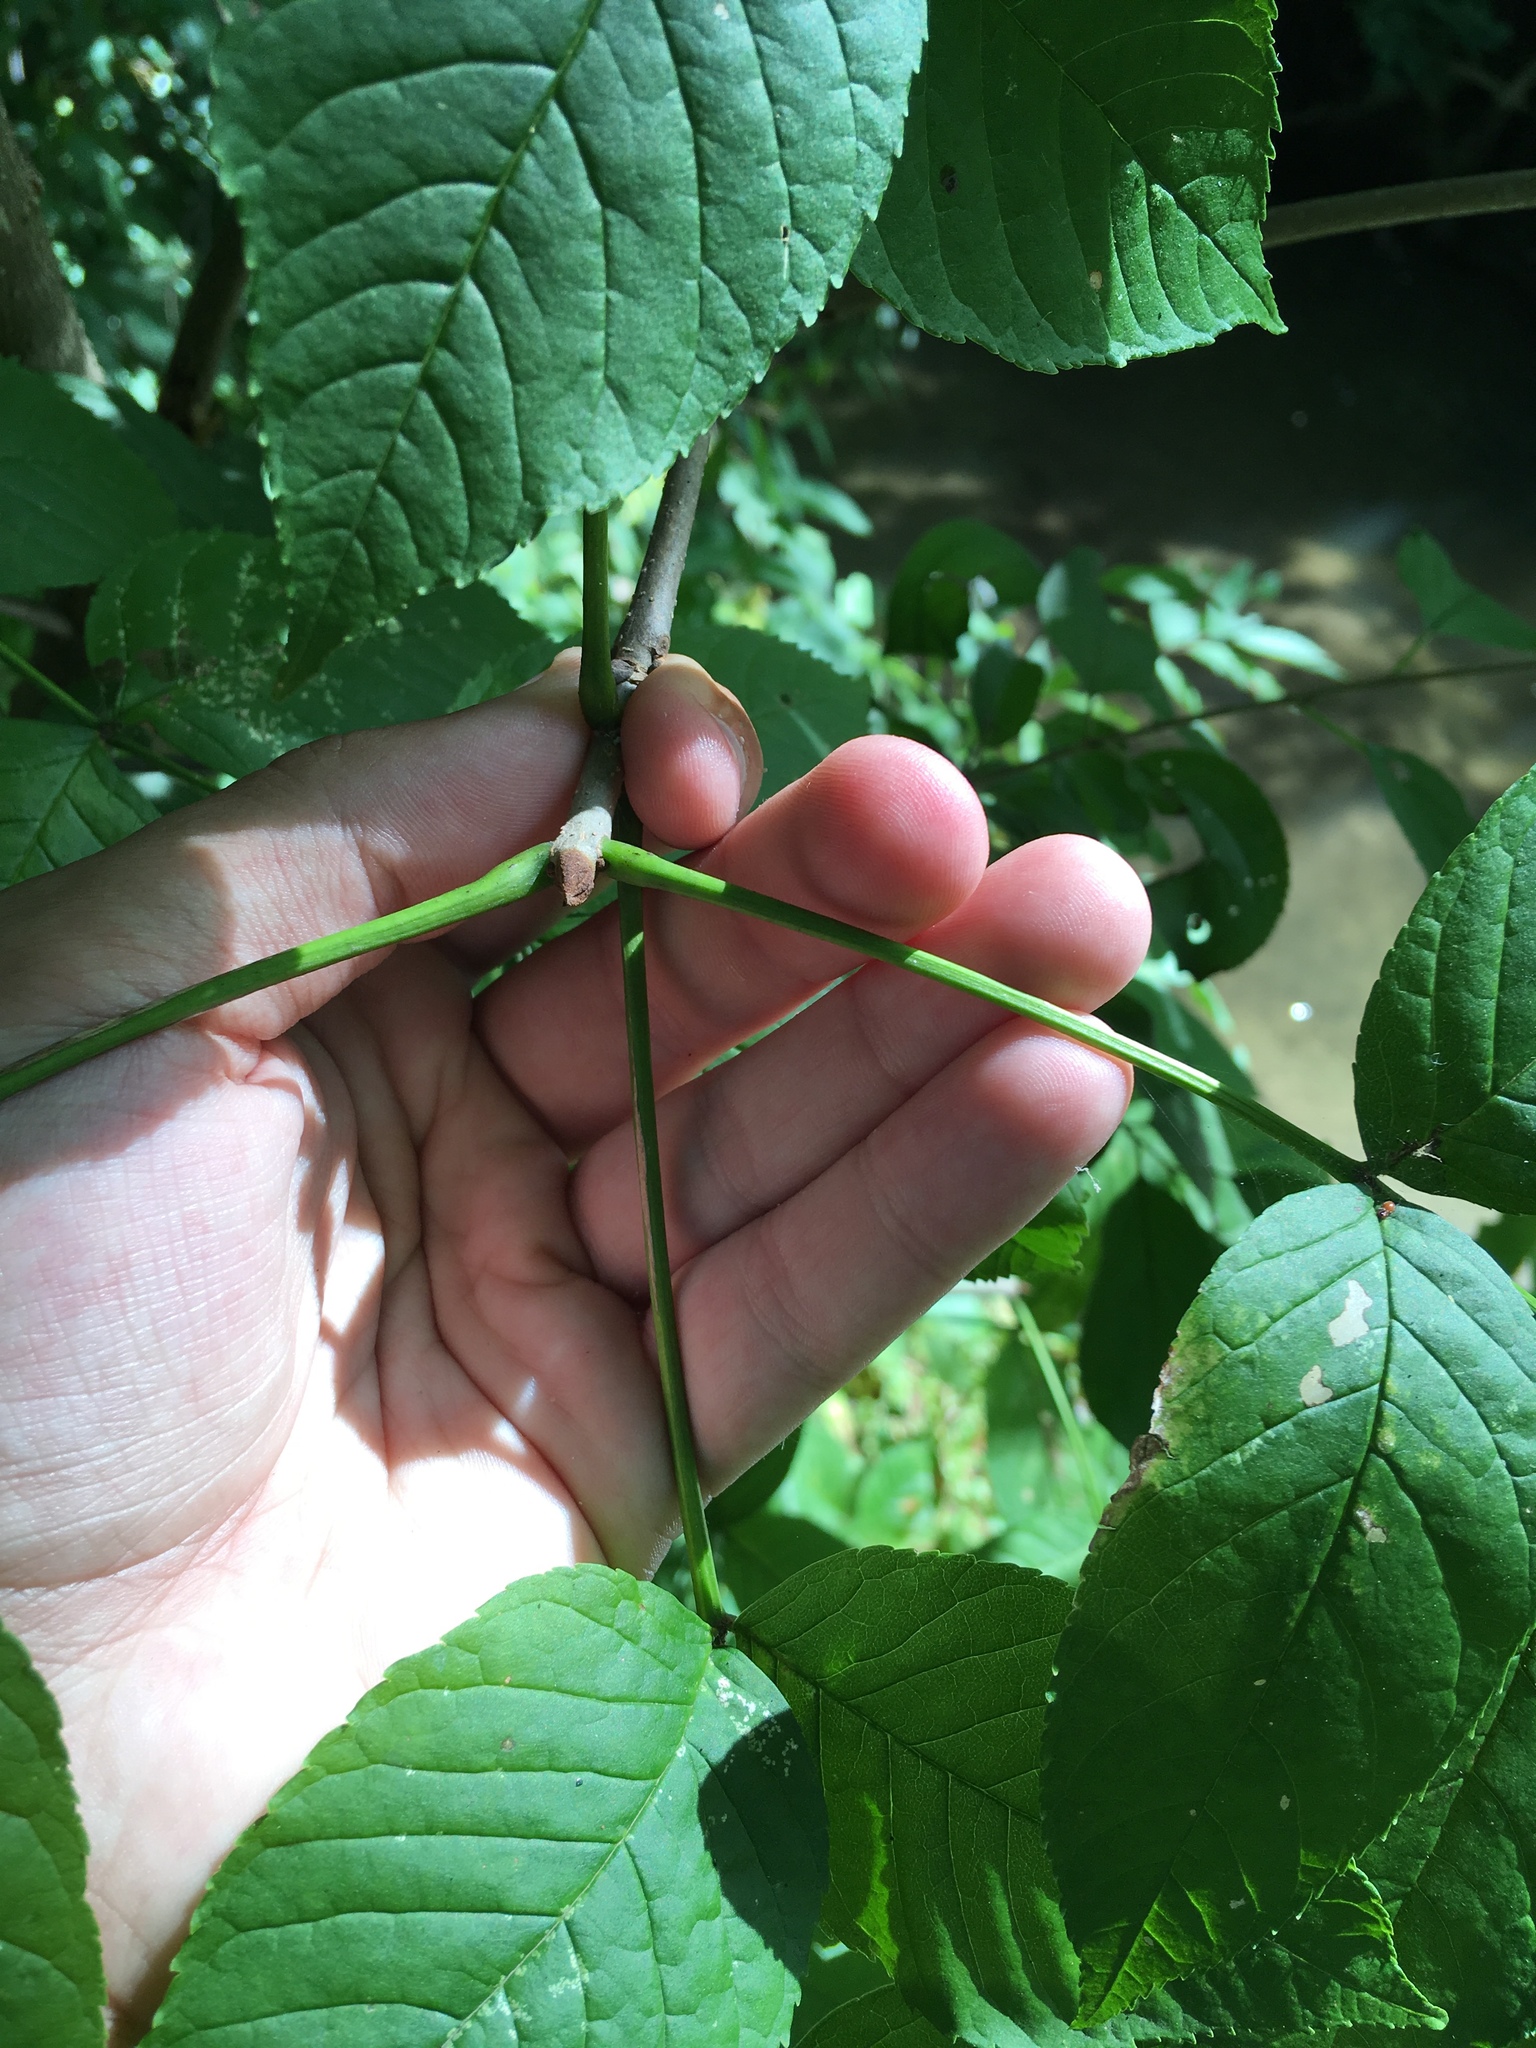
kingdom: Plantae
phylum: Tracheophyta
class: Magnoliopsida
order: Lamiales
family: Oleaceae
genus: Fraxinus
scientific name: Fraxinus nigra
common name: Black ash
